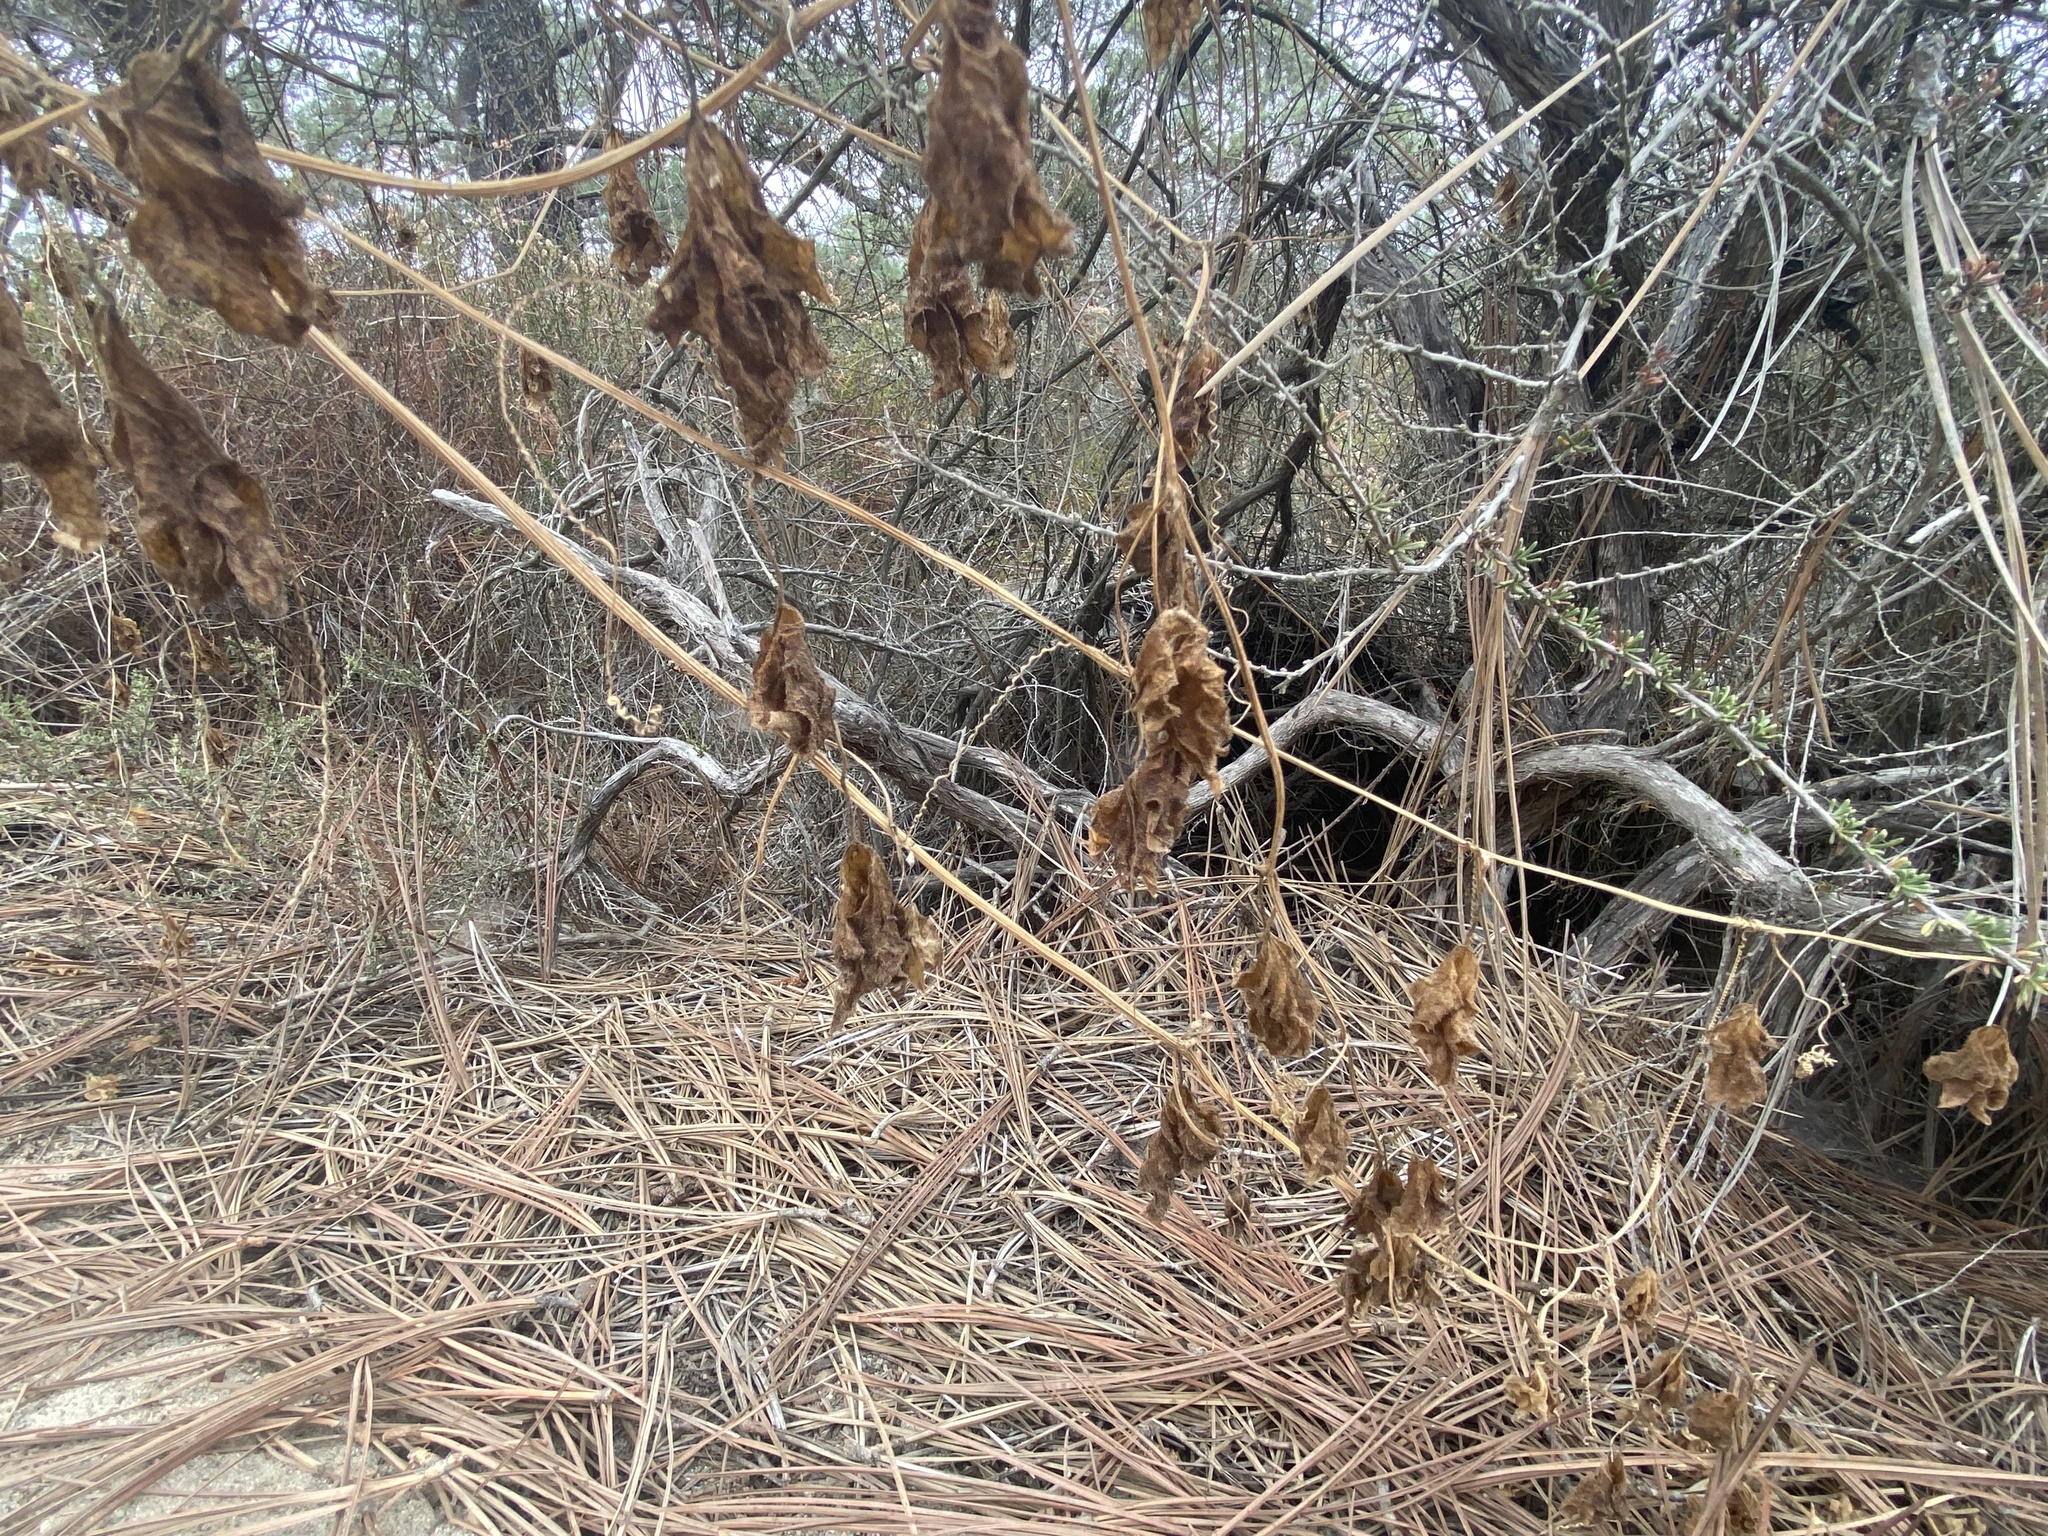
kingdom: Plantae
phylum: Tracheophyta
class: Magnoliopsida
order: Cucurbitales
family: Cucurbitaceae
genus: Marah
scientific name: Marah macrocarpa
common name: Cucamonga manroot
